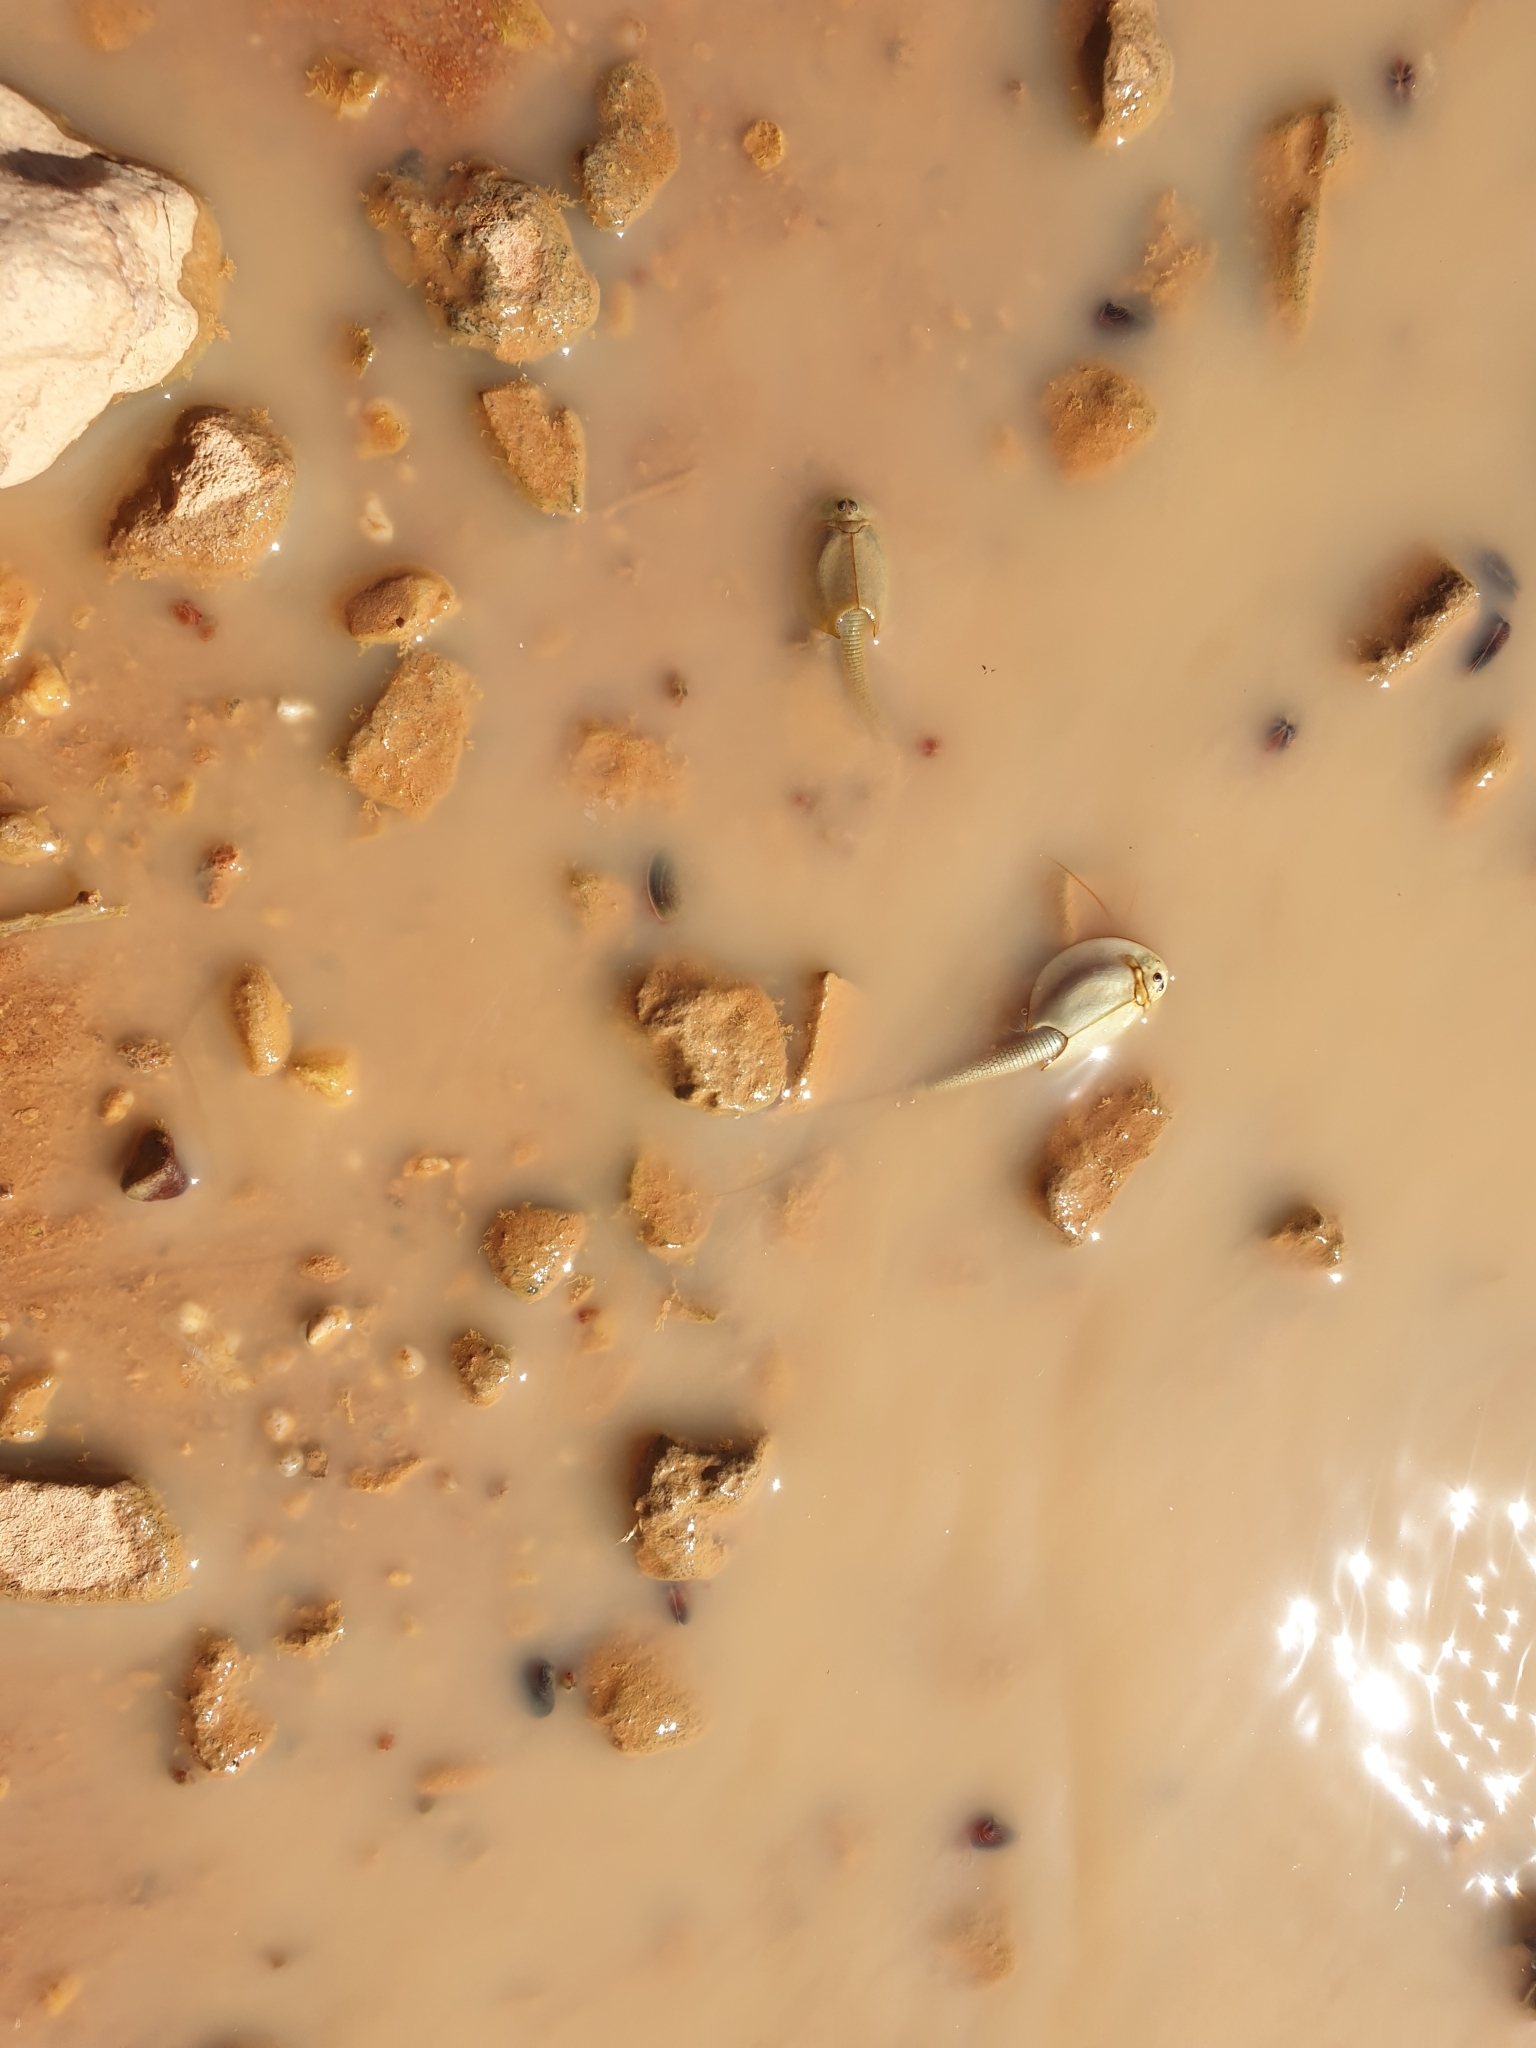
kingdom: Animalia
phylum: Arthropoda
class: Branchiopoda
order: Notostraca
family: Triopsidae
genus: Triops
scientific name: Triops australiensis
